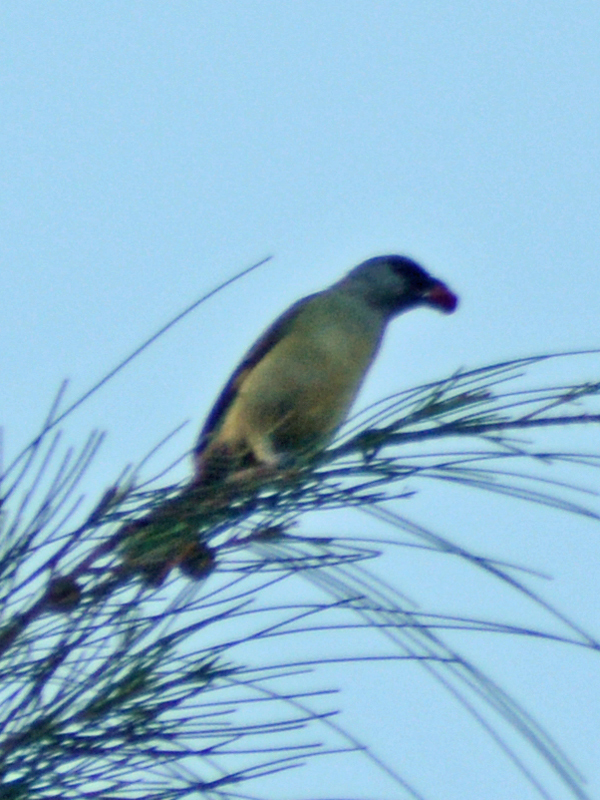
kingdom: Animalia
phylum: Chordata
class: Aves
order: Passeriformes
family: Thraupidae
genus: Thraupis
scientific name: Thraupis abbas
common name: Yellow-winged tanager
